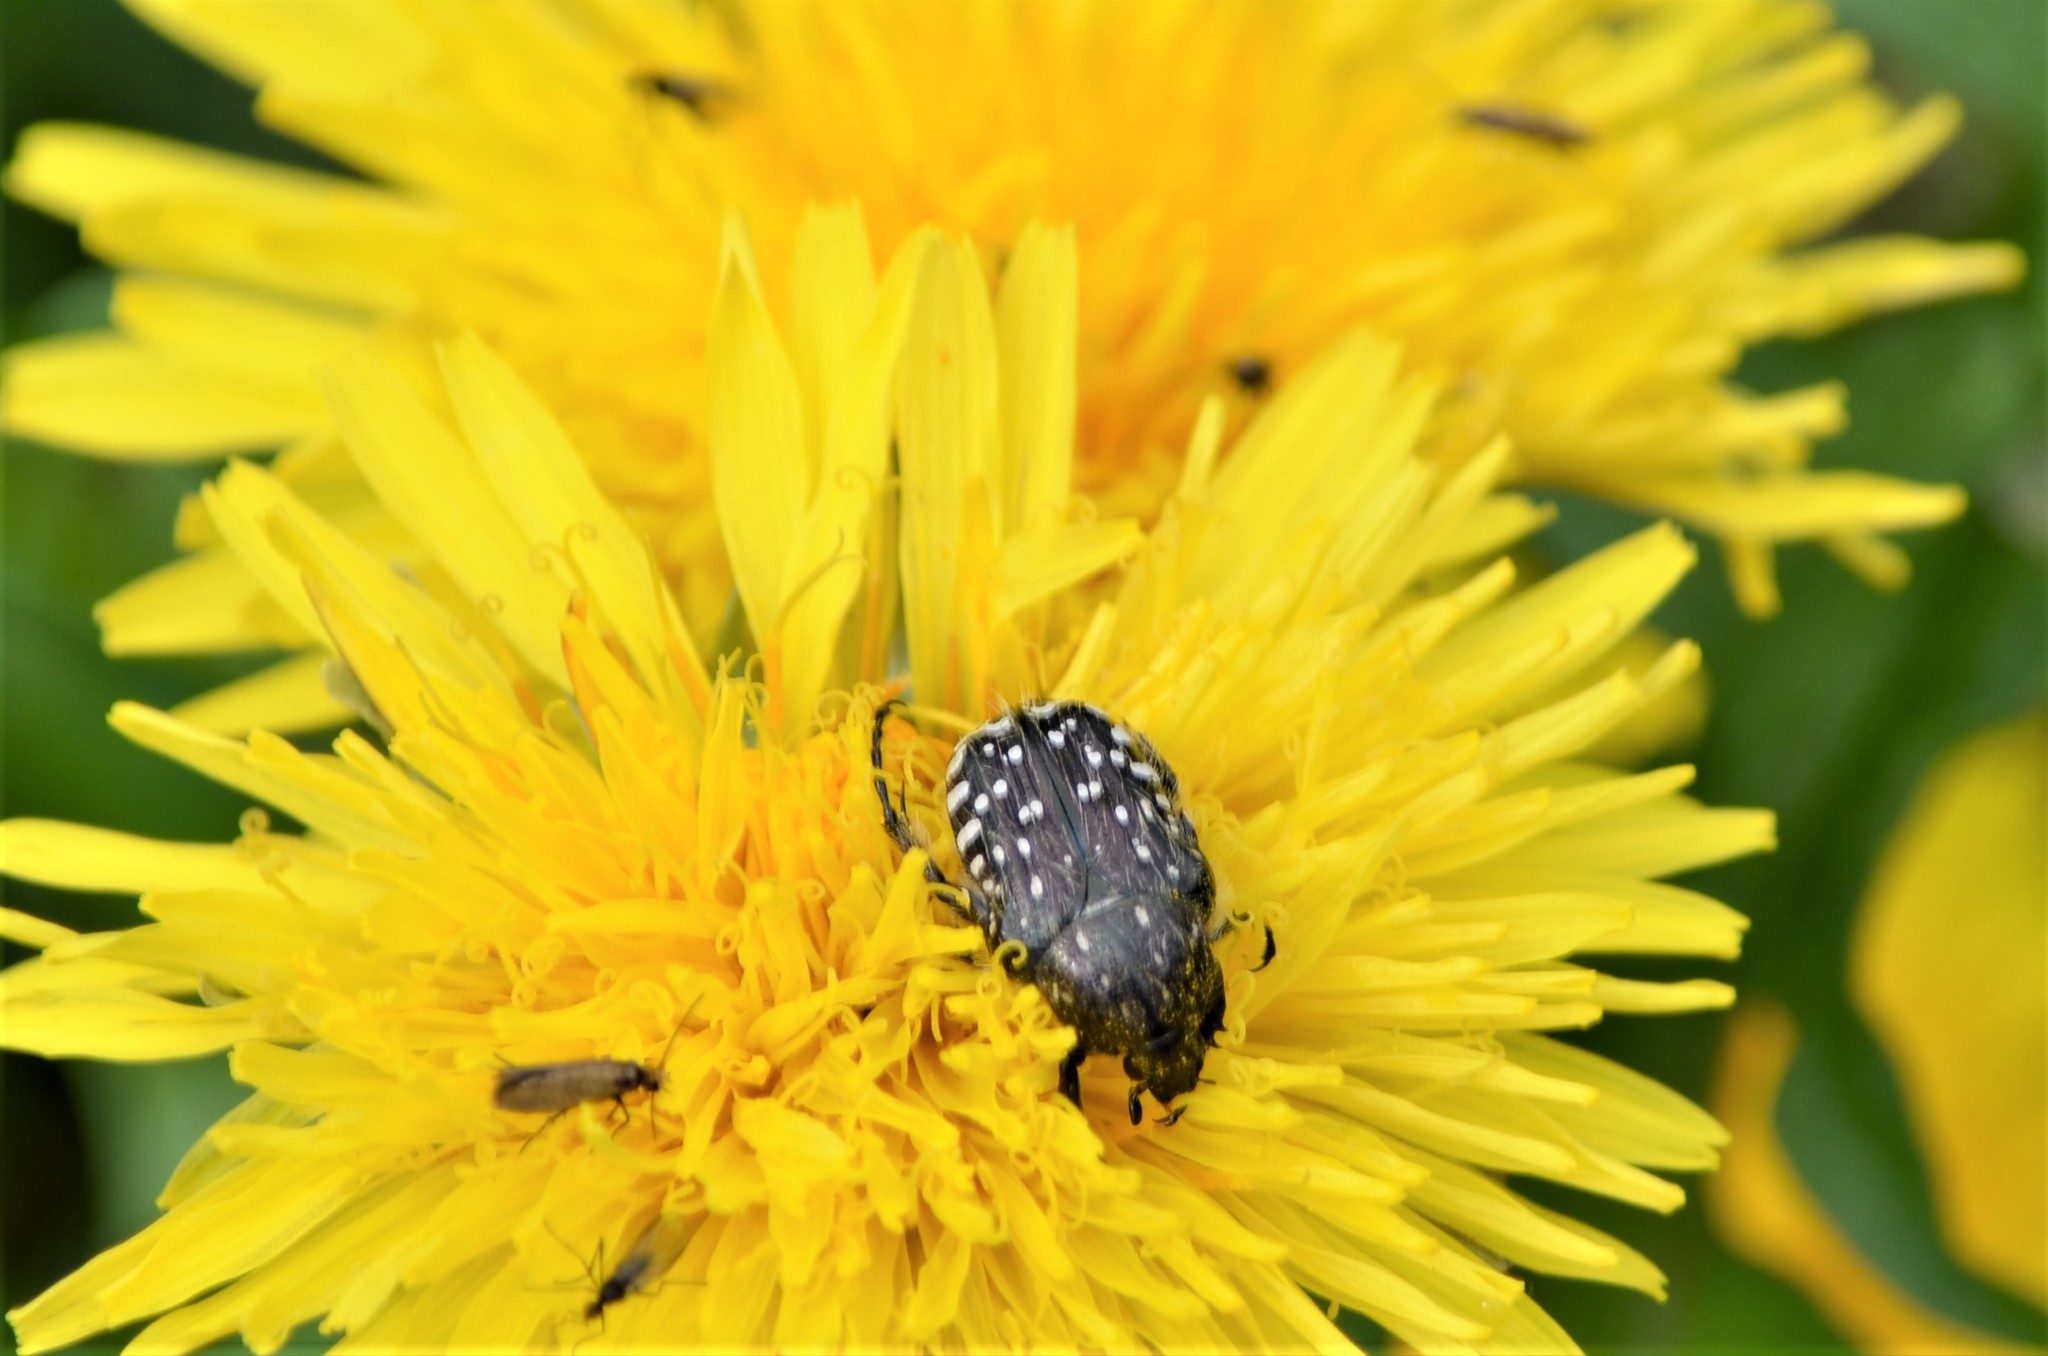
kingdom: Animalia
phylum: Arthropoda
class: Insecta
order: Coleoptera
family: Scarabaeidae
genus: Oxythyrea
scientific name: Oxythyrea funesta
